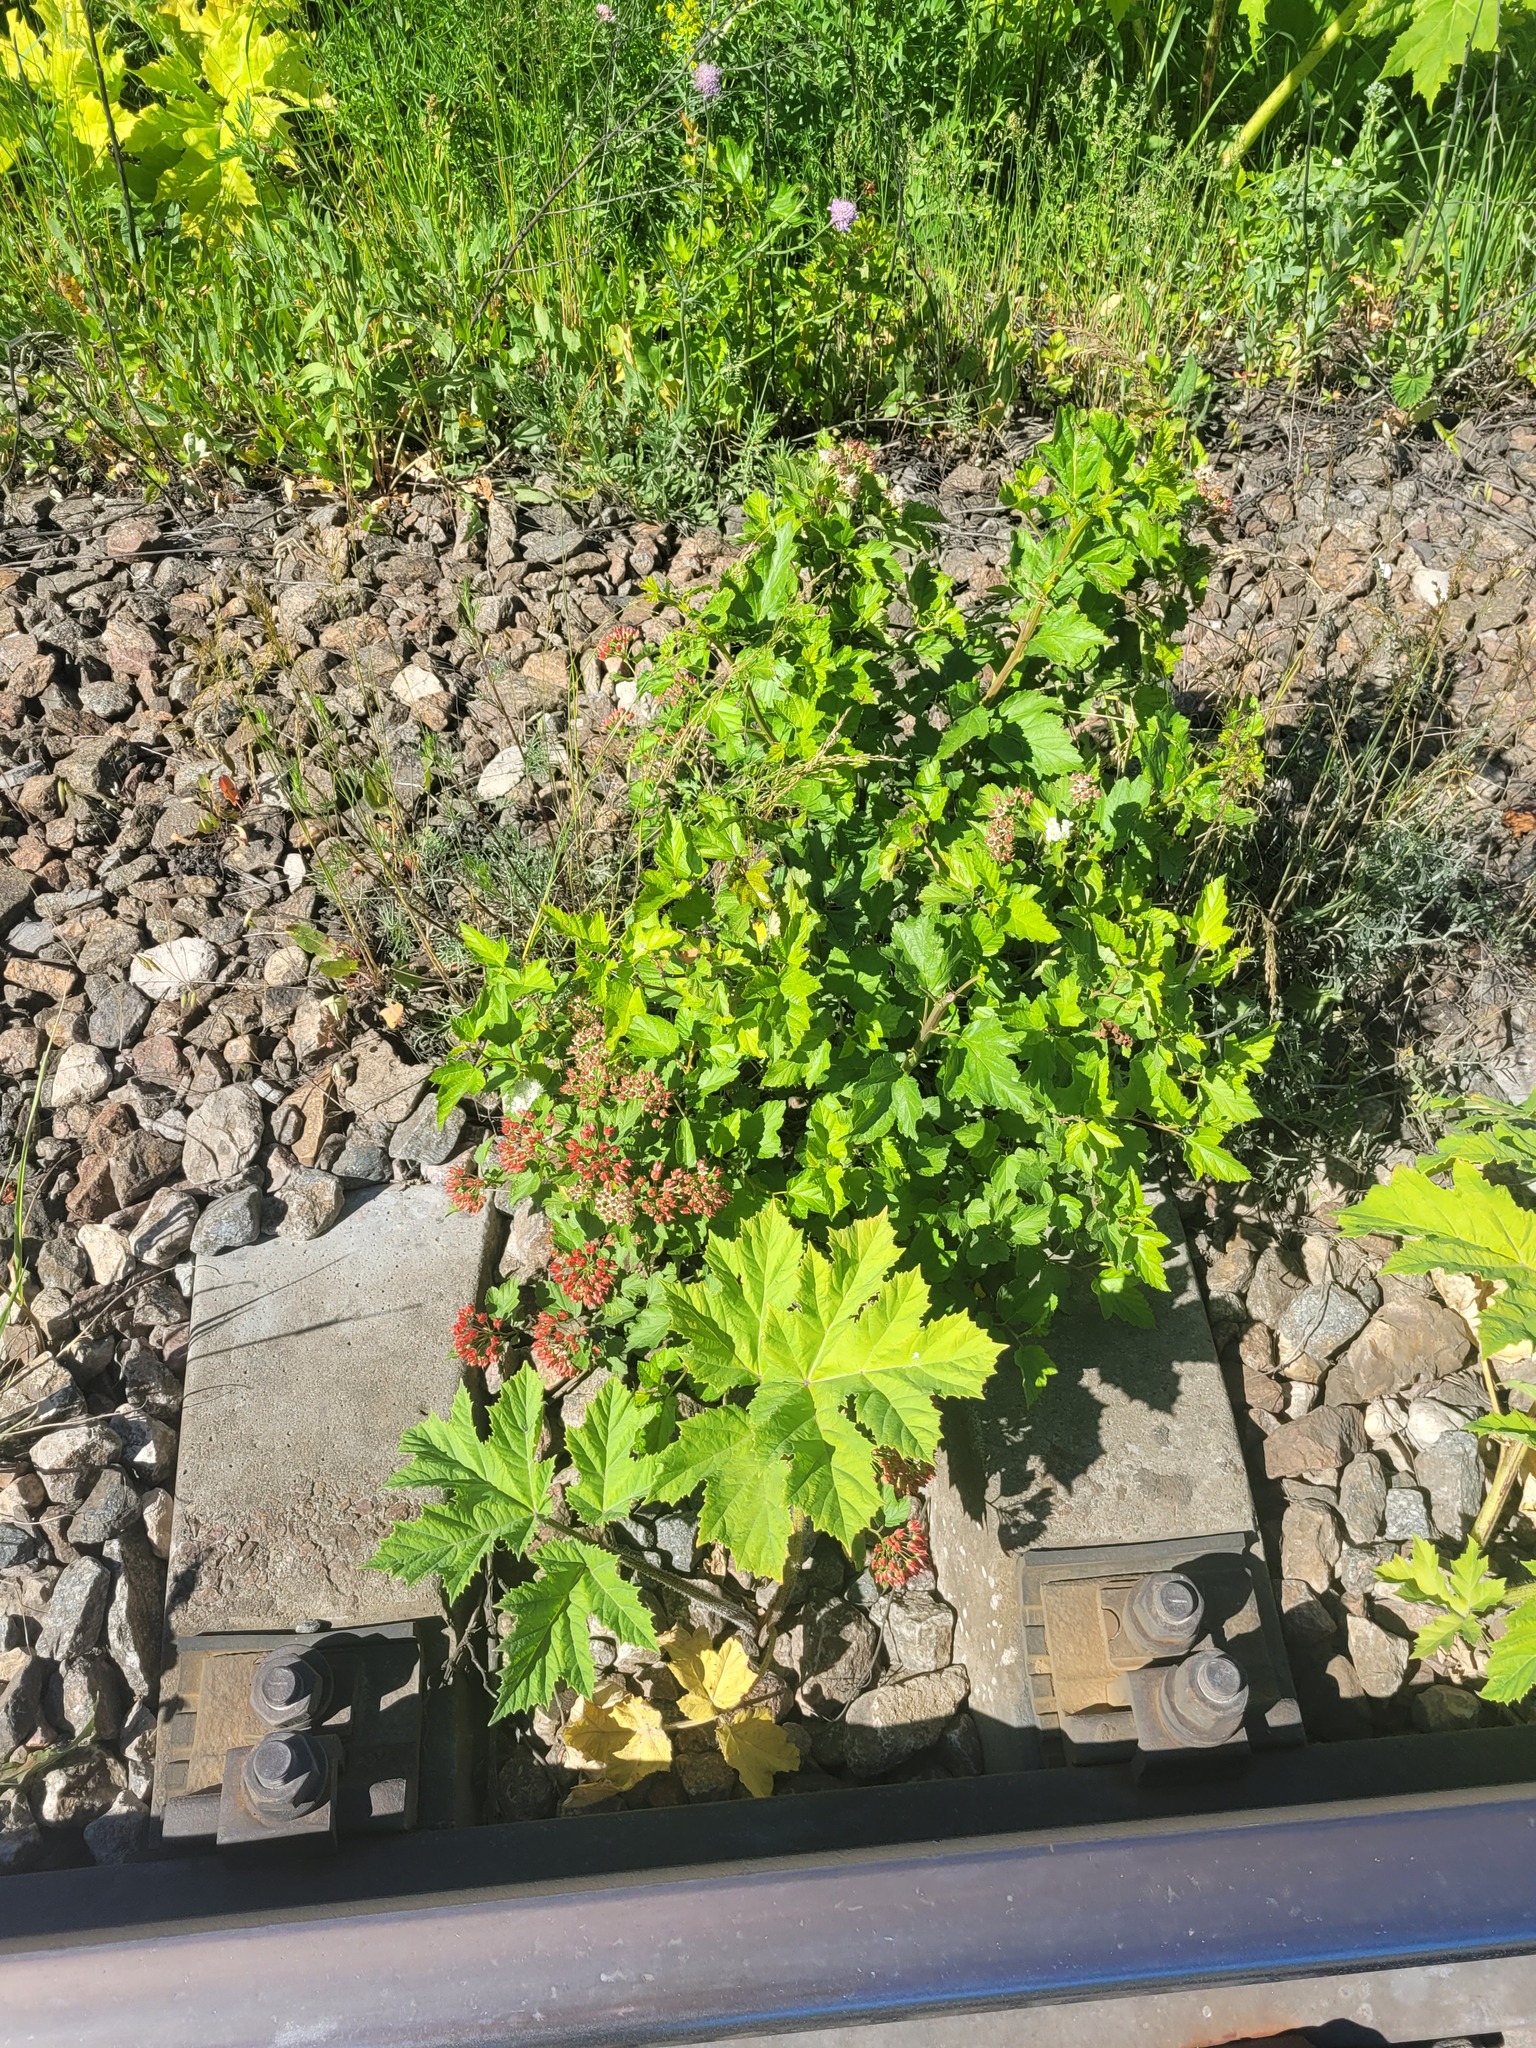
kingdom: Plantae
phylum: Tracheophyta
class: Magnoliopsida
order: Rosales
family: Rosaceae
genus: Physocarpus
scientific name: Physocarpus opulifolius
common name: Ninebark
